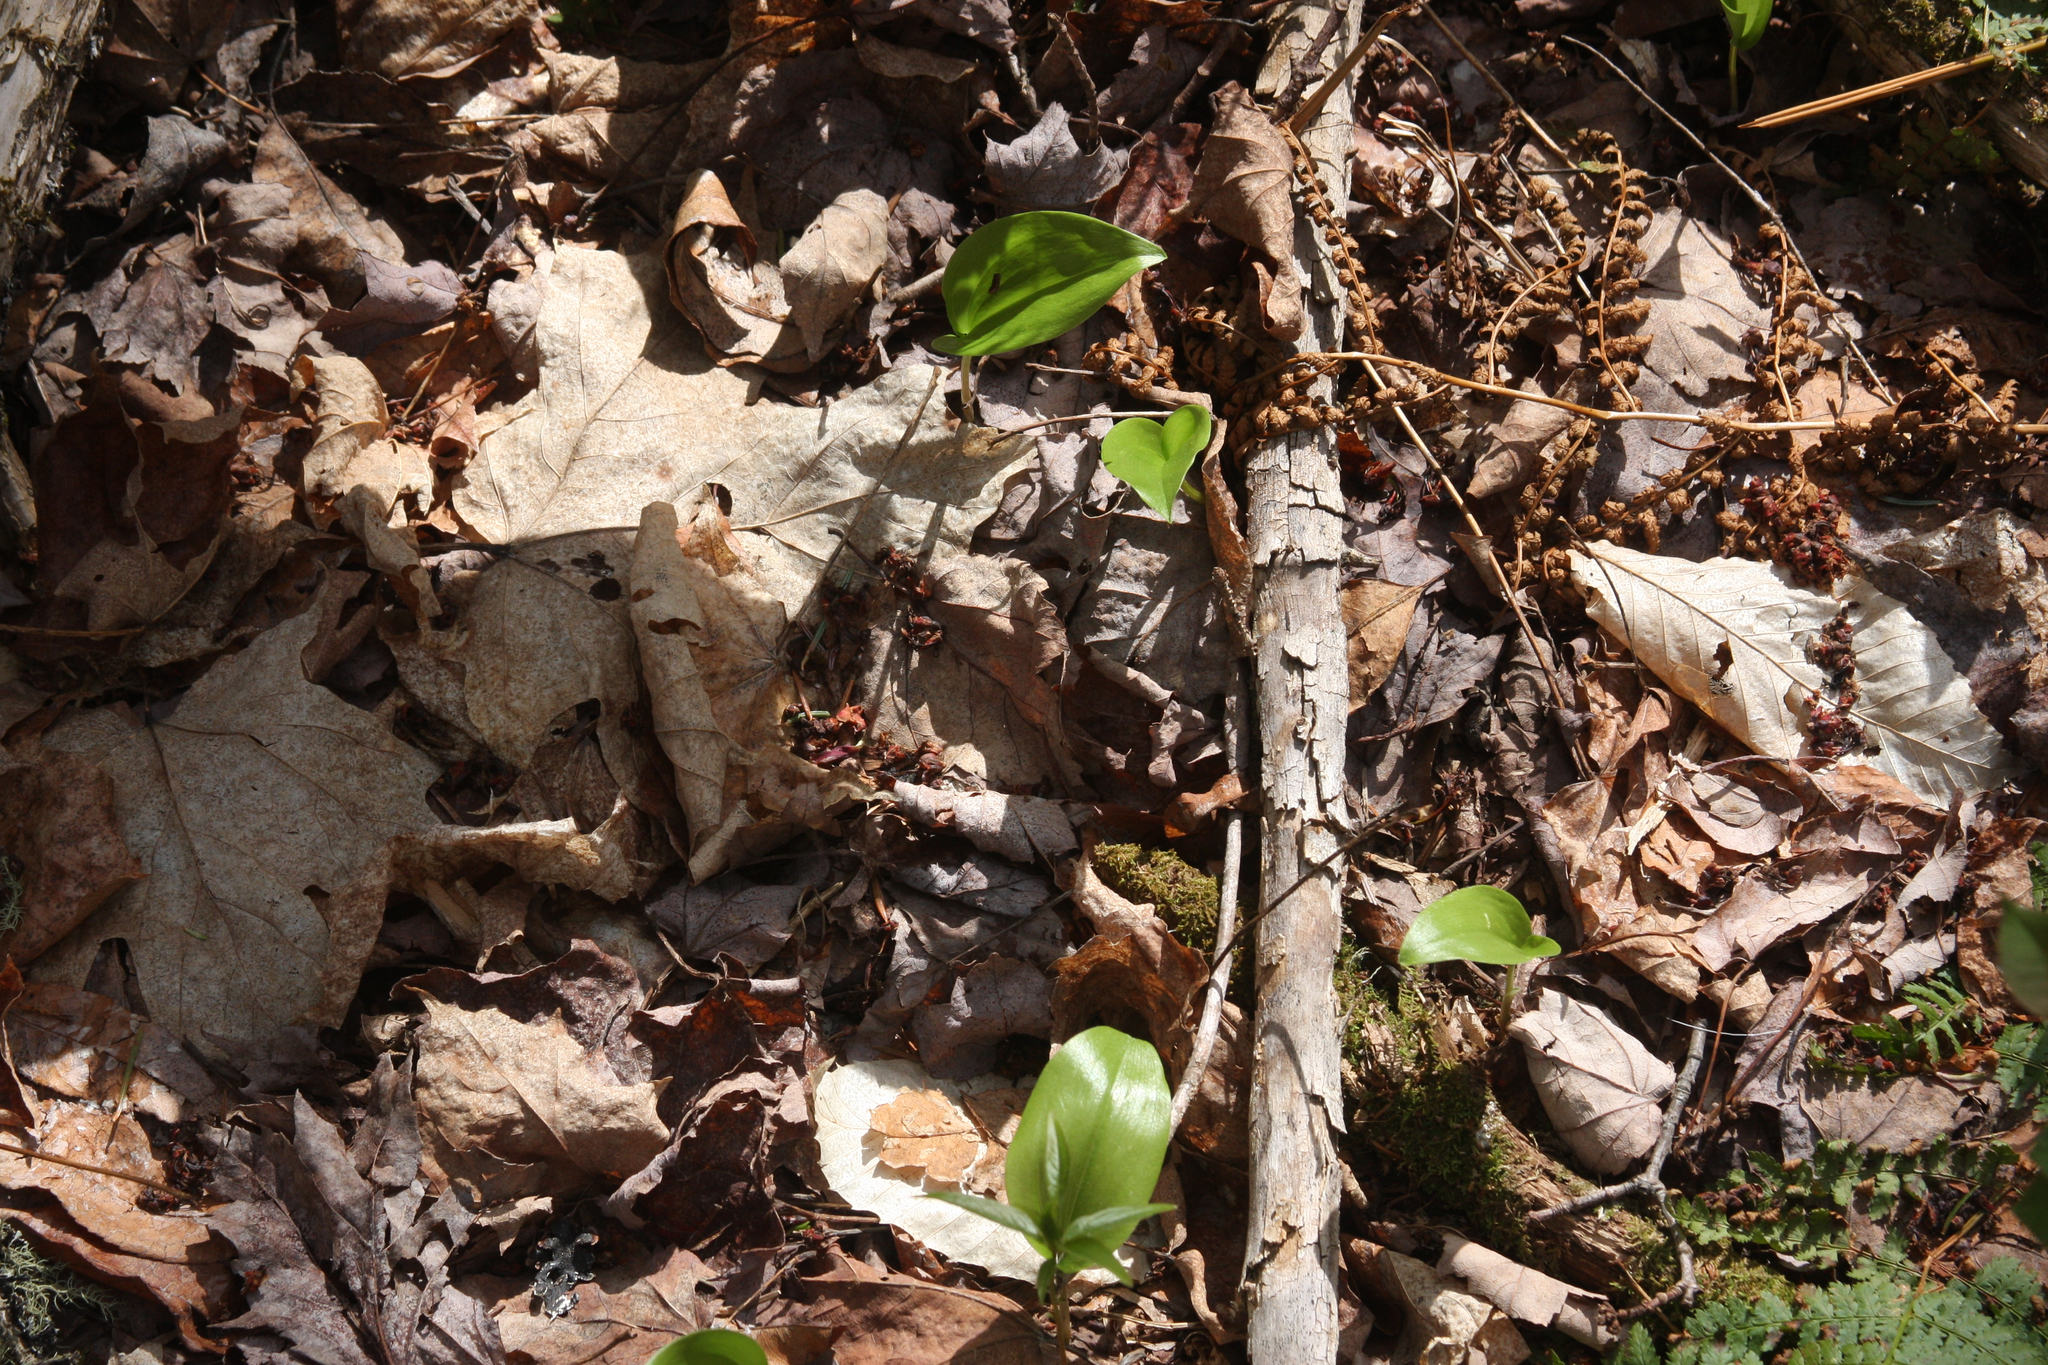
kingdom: Plantae
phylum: Tracheophyta
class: Liliopsida
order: Asparagales
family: Asparagaceae
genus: Maianthemum
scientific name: Maianthemum canadense
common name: False lily-of-the-valley
